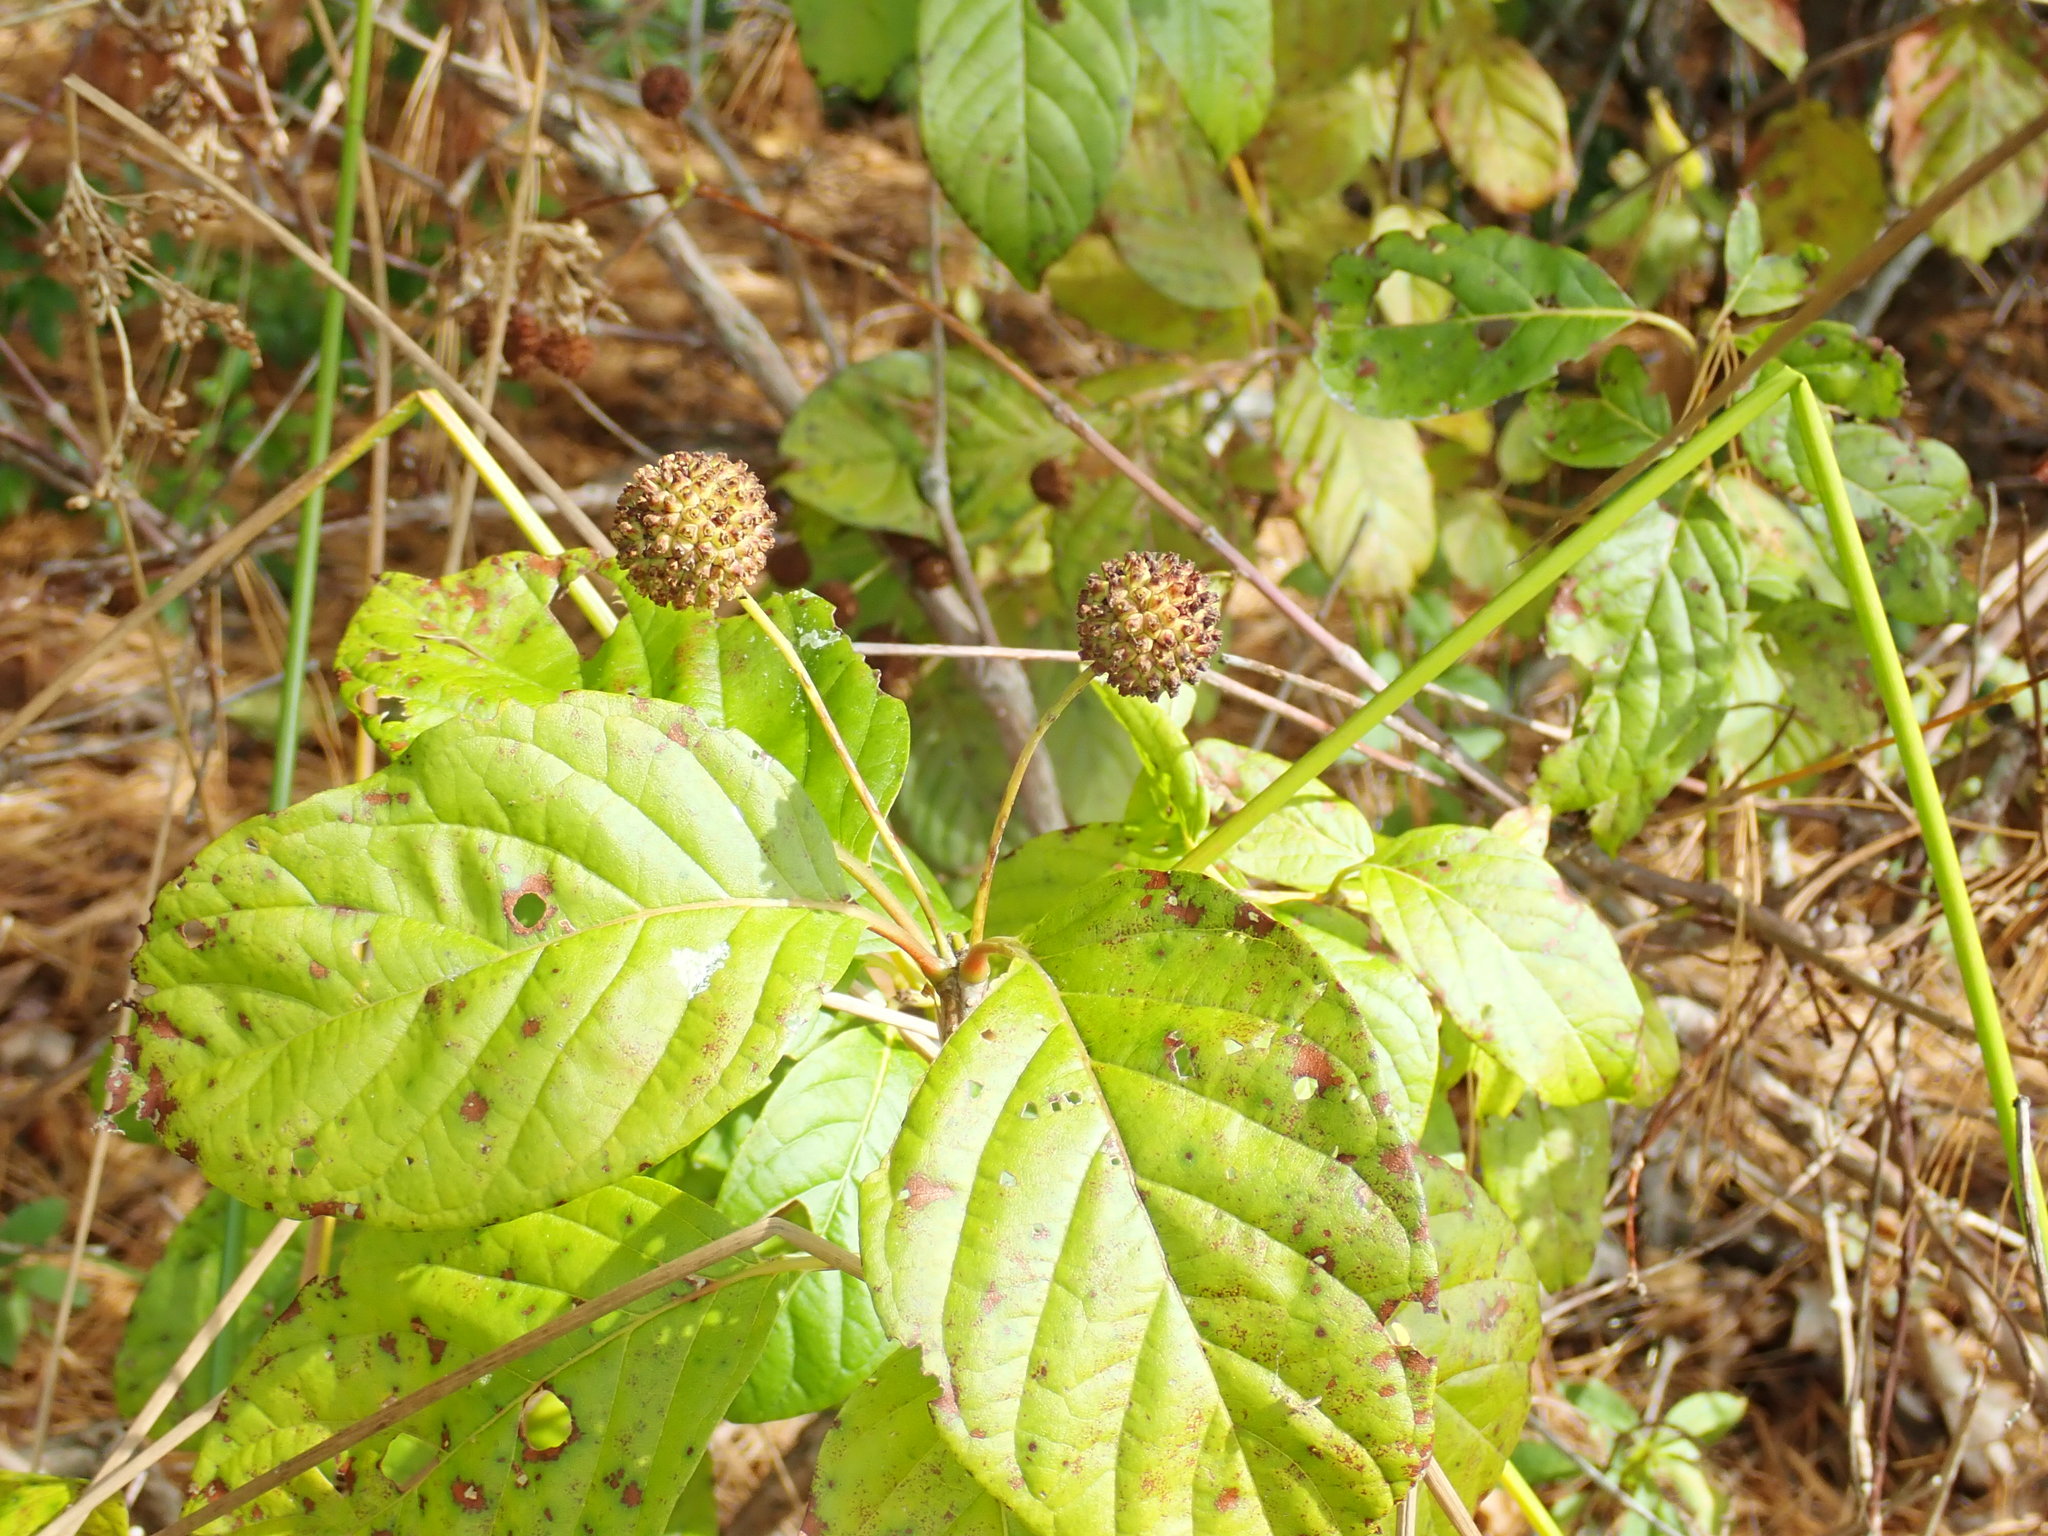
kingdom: Plantae
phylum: Tracheophyta
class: Magnoliopsida
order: Gentianales
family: Rubiaceae
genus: Cephalanthus
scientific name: Cephalanthus occidentalis
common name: Button-willow
